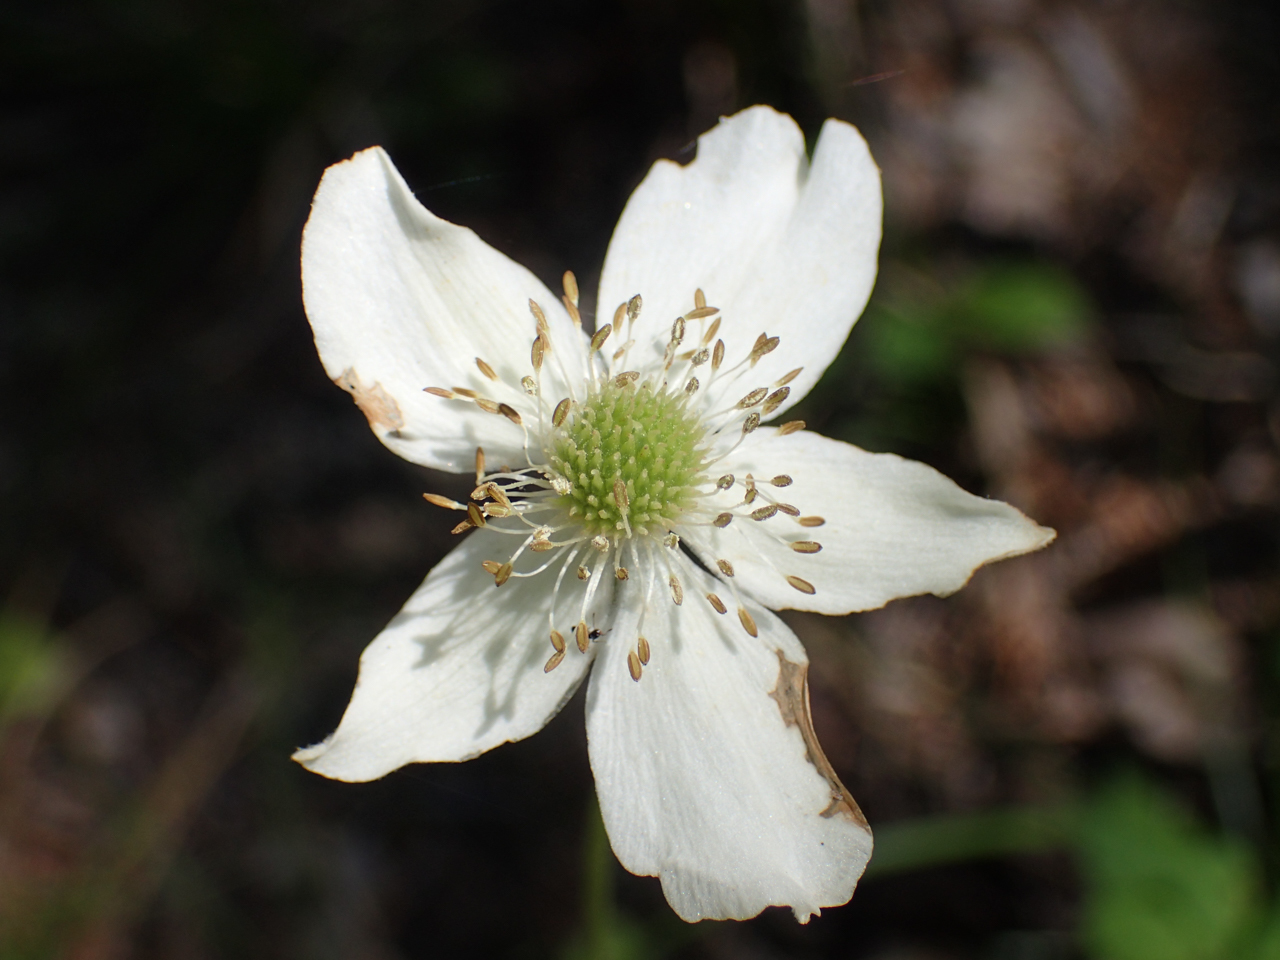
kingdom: Plantae
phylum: Tracheophyta
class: Magnoliopsida
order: Ranunculales
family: Ranunculaceae
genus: Anemone
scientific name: Anemone virginiana
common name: Tall anemone
